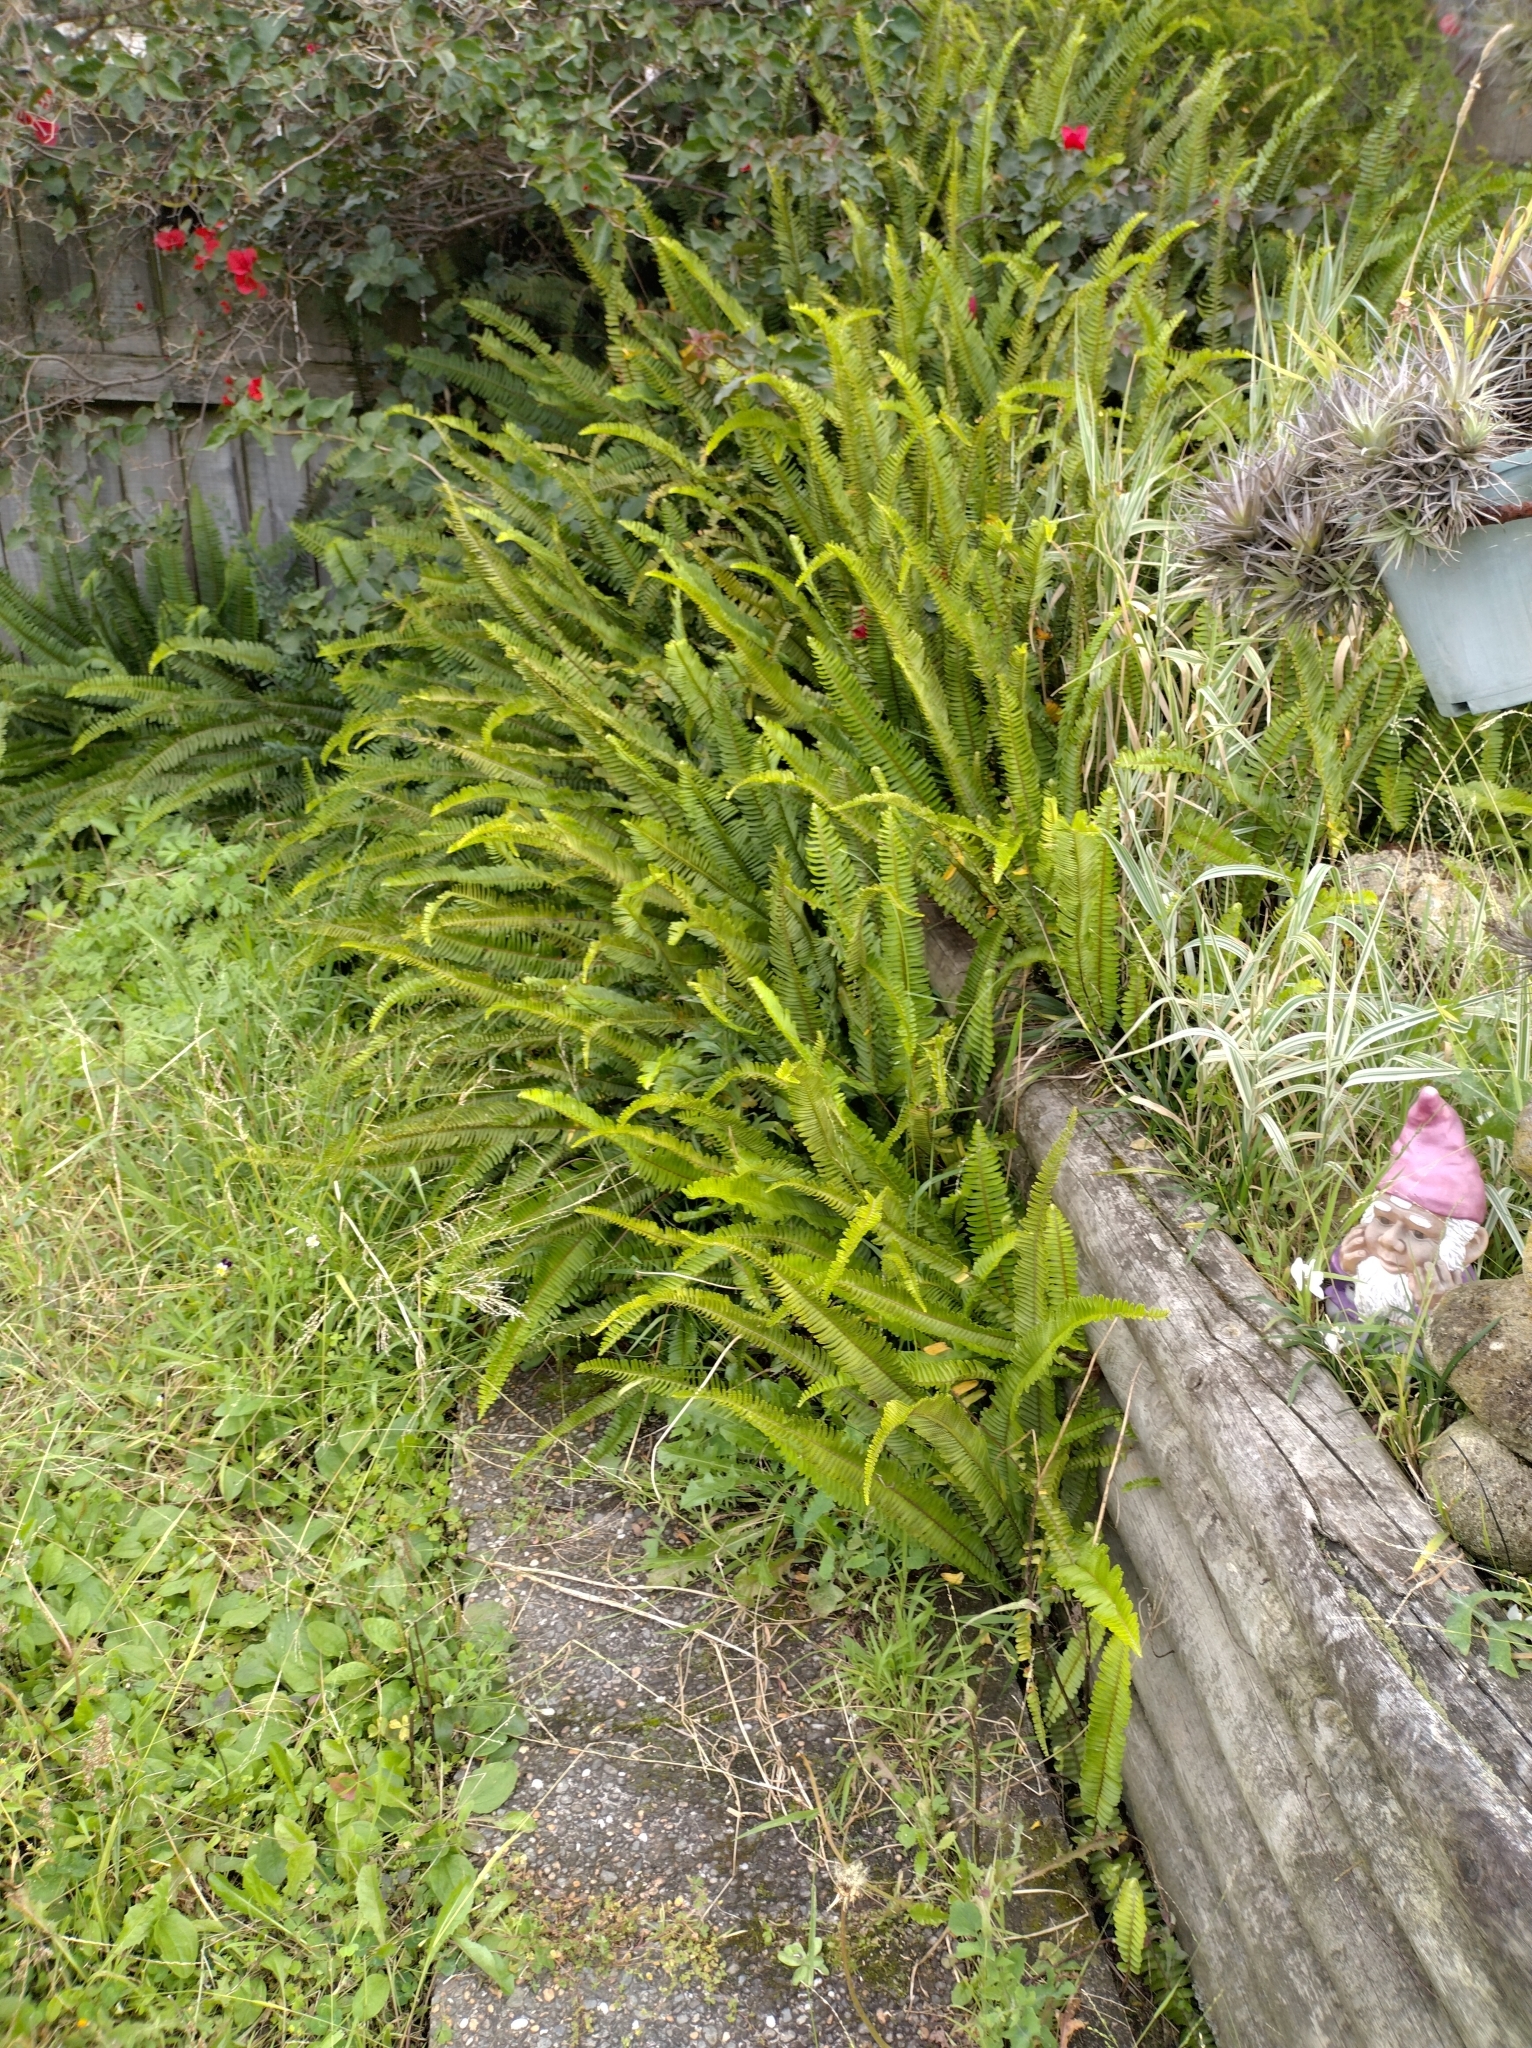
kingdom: Plantae
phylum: Tracheophyta
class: Polypodiopsida
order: Polypodiales
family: Nephrolepidaceae
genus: Nephrolepis
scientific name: Nephrolepis cordifolia
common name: Narrow swordfern
